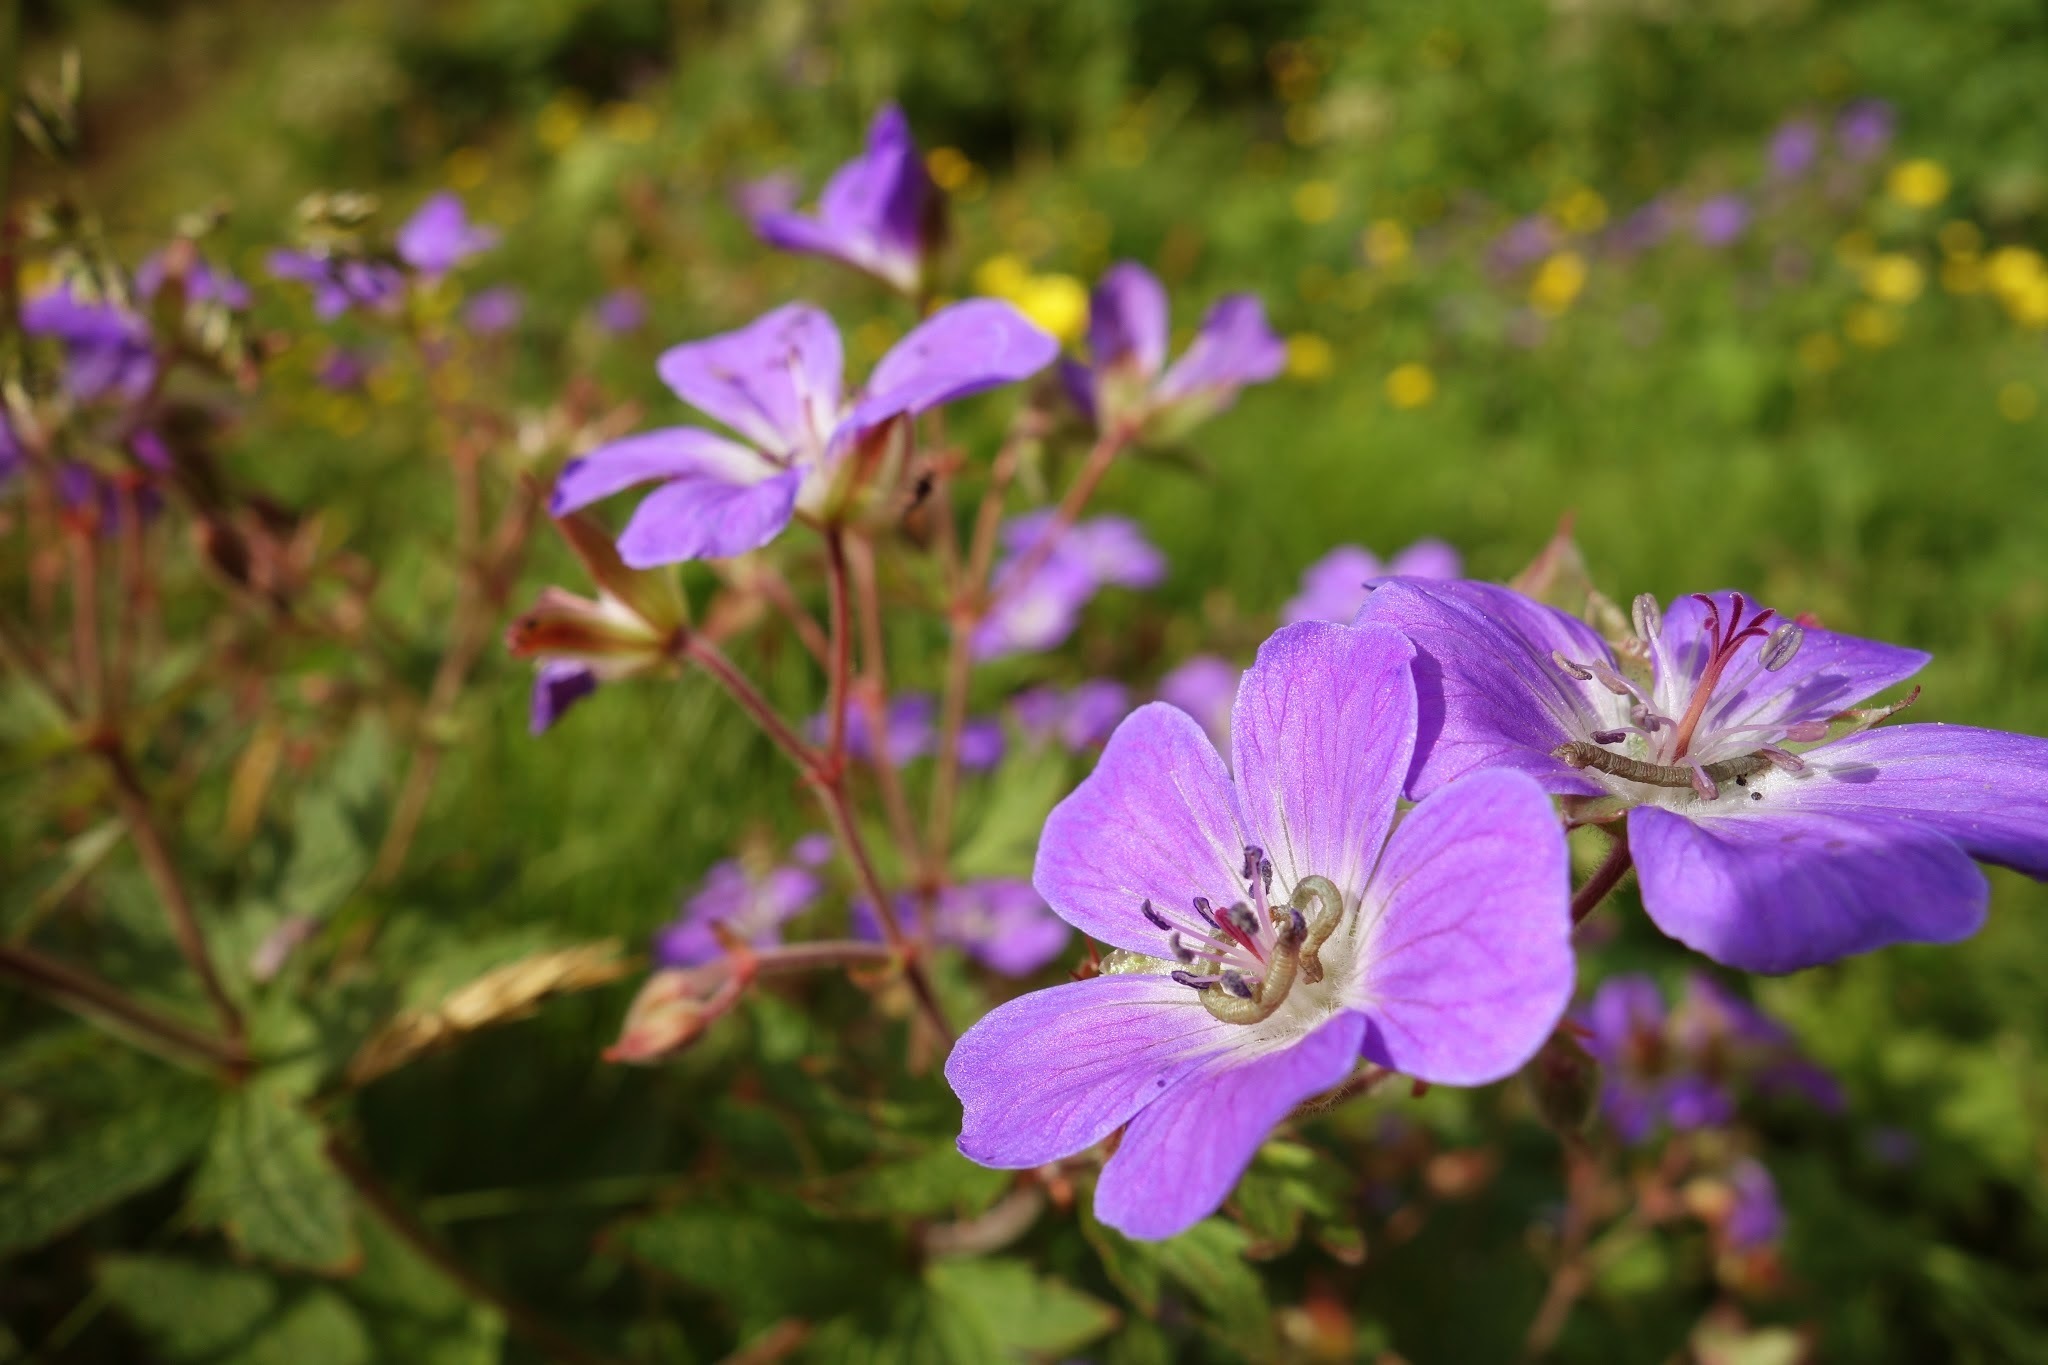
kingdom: Plantae
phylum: Tracheophyta
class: Magnoliopsida
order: Geraniales
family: Geraniaceae
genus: Geranium
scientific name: Geranium sylvaticum
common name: Wood crane's-bill
